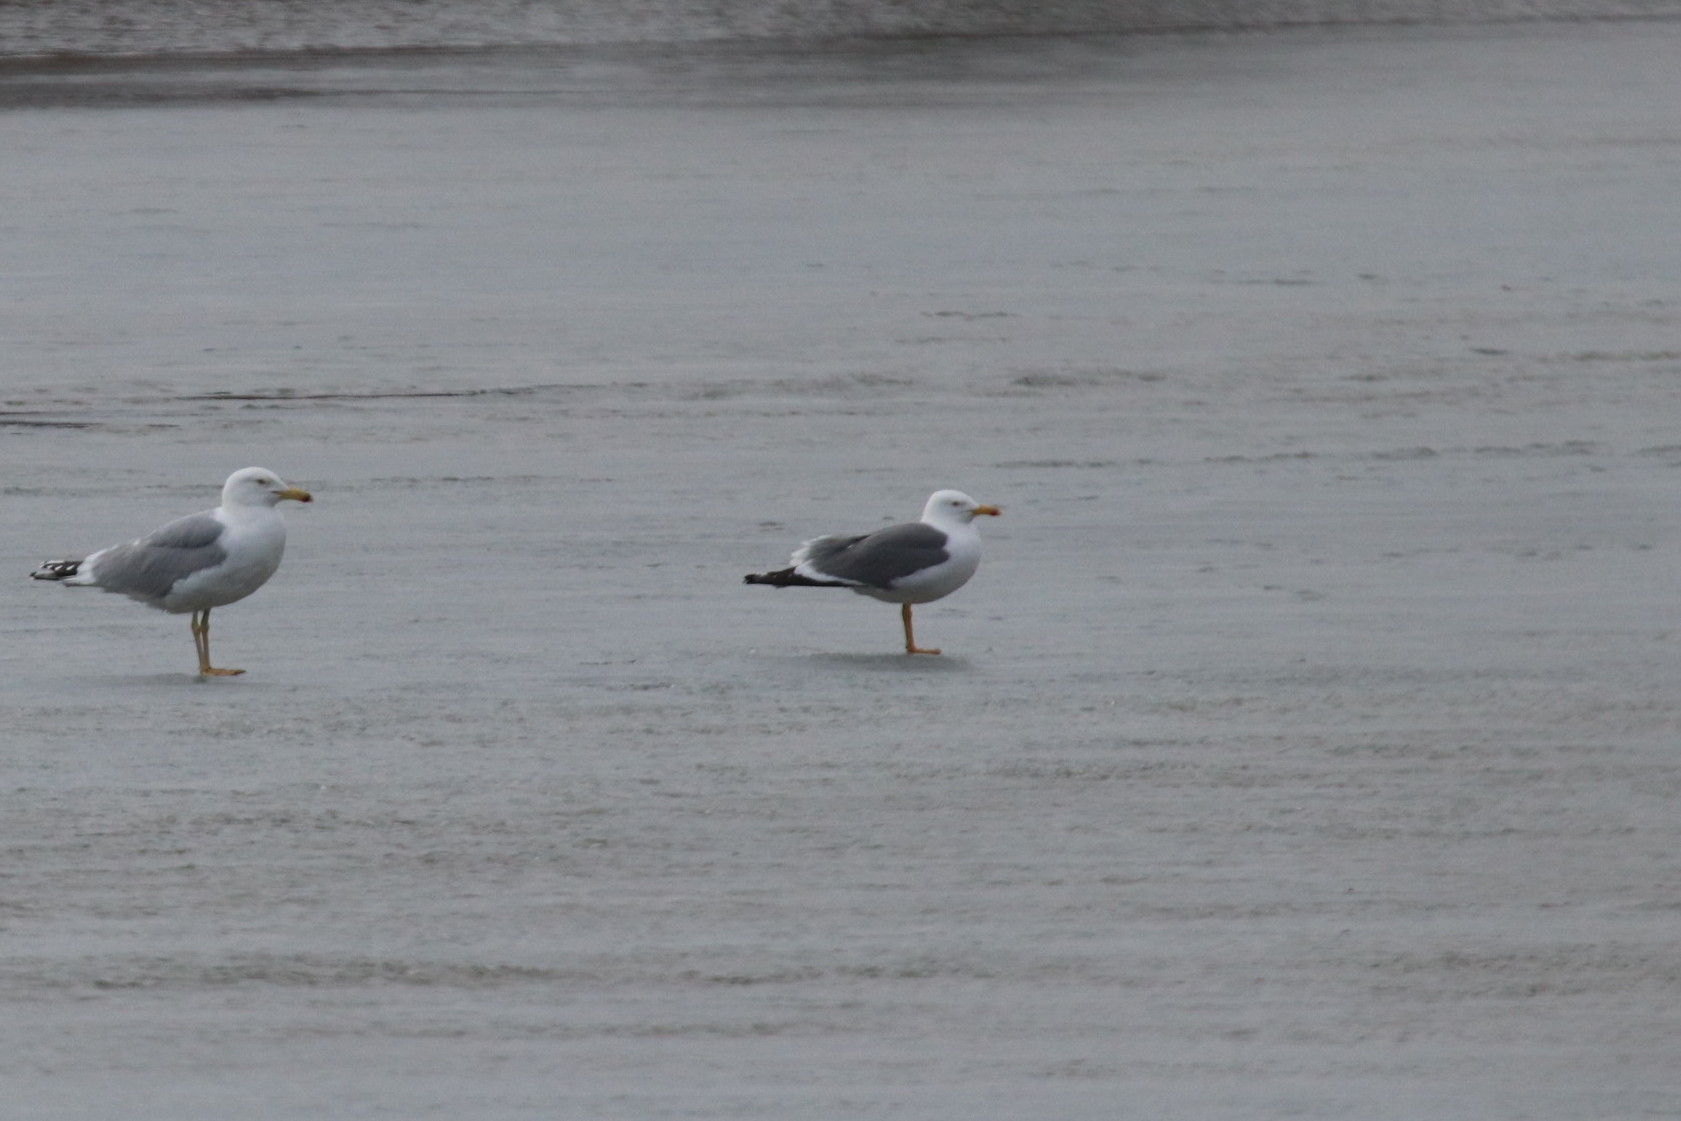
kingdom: Animalia
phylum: Chordata
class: Aves
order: Charadriiformes
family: Laridae
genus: Larus
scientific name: Larus fuscus
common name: Lesser black-backed gull
